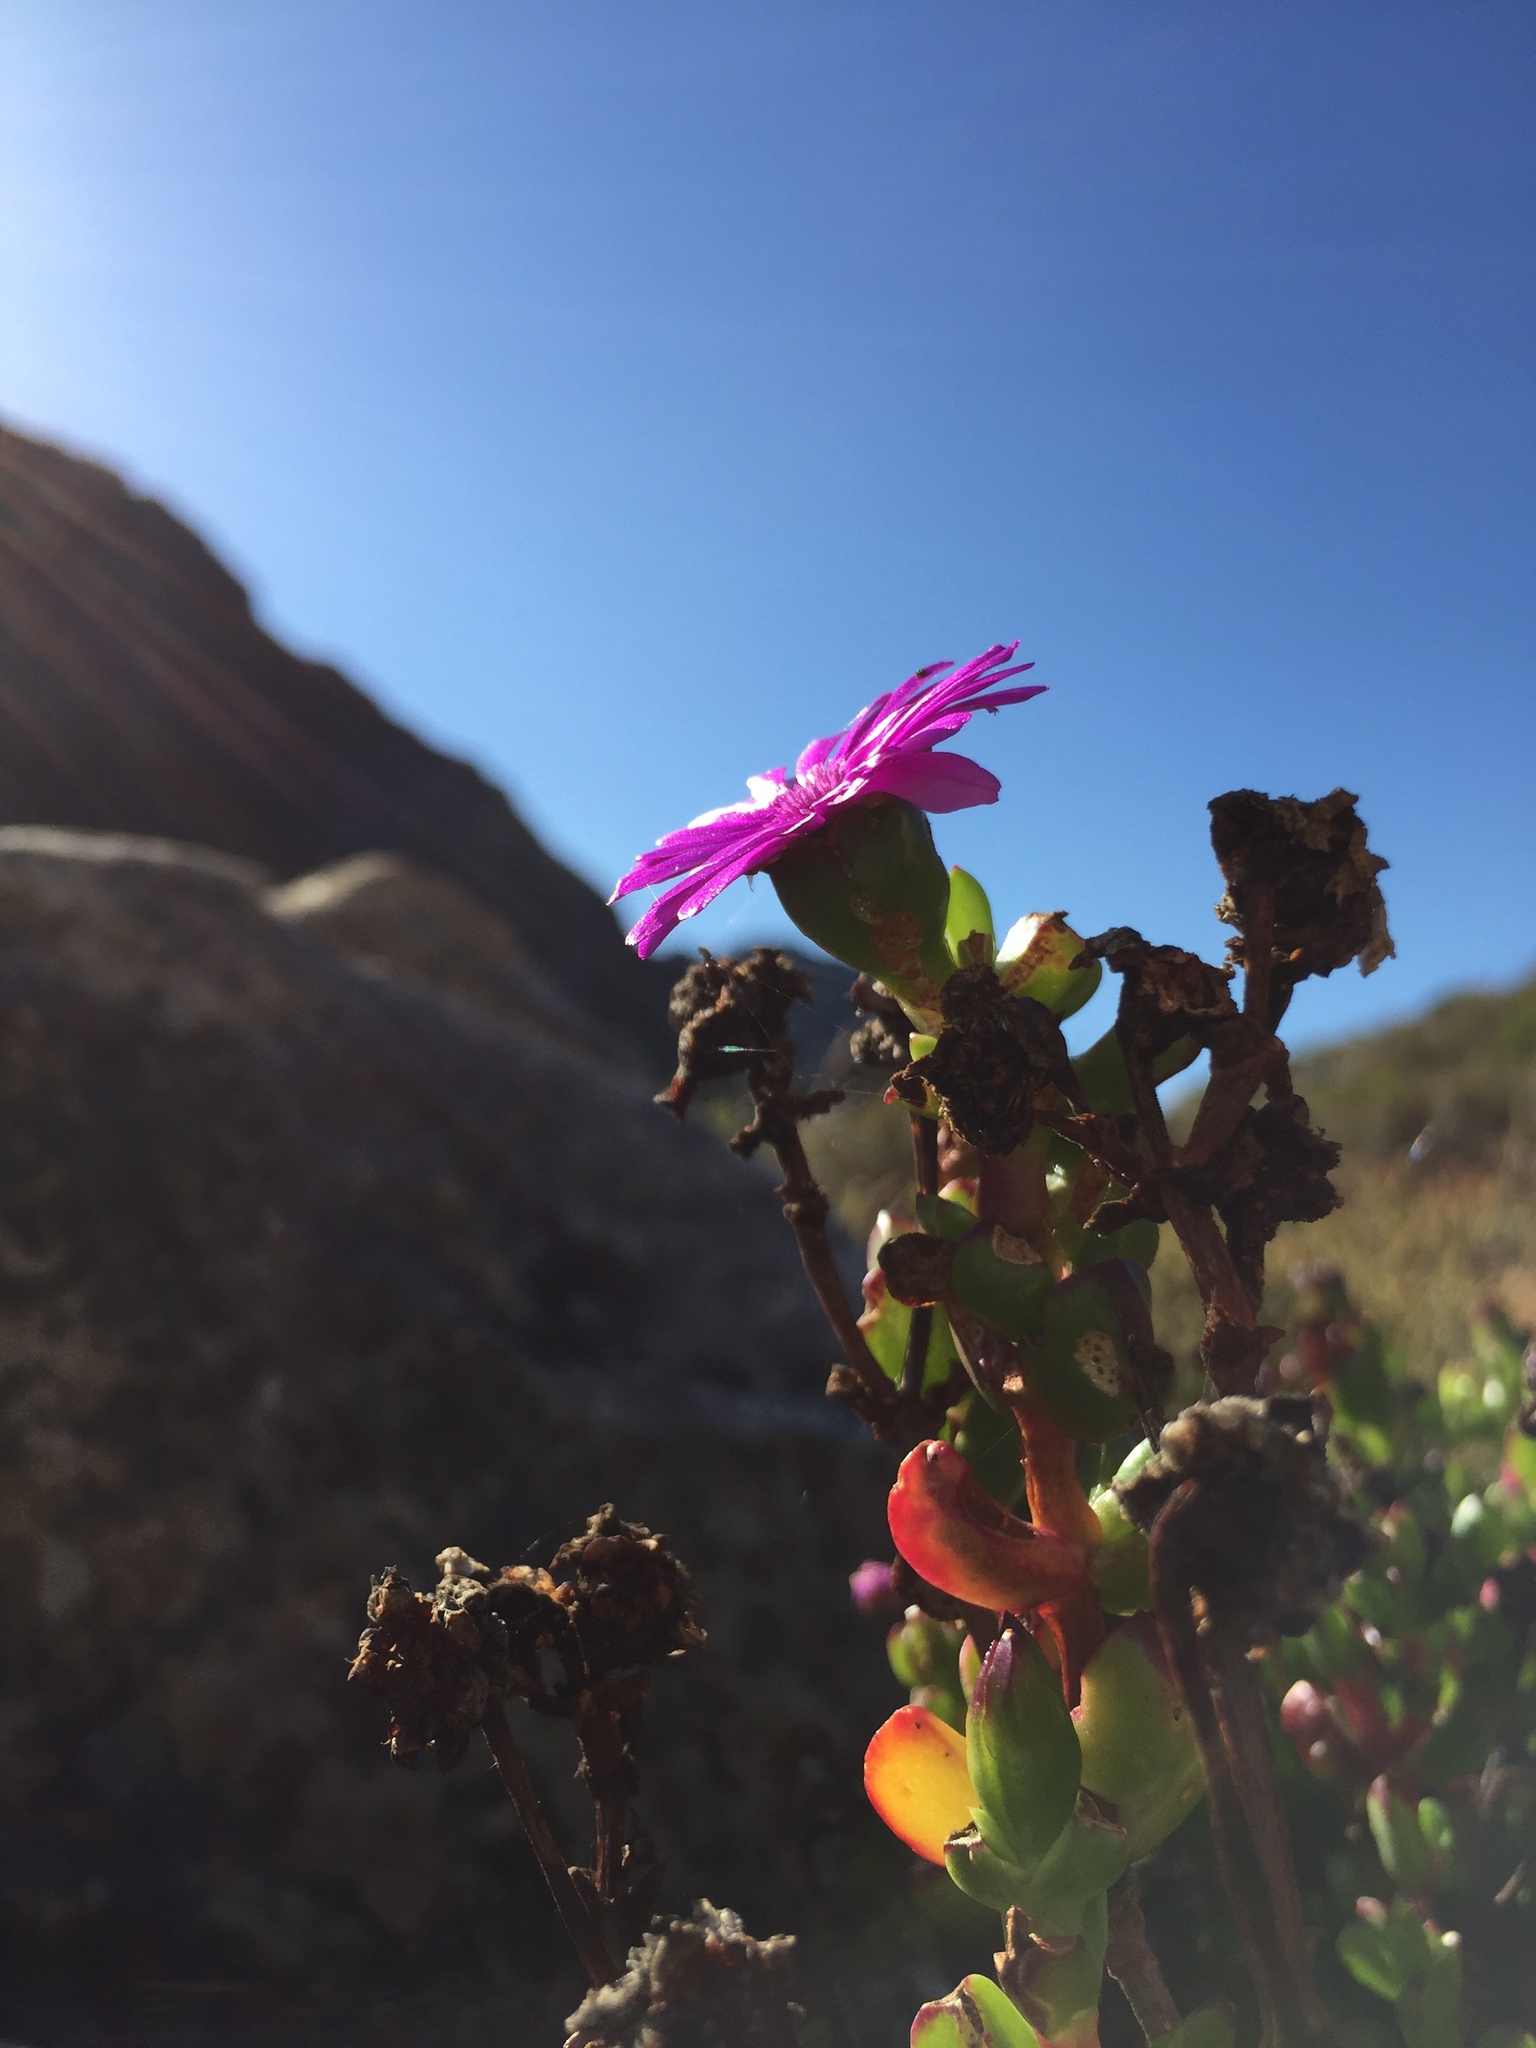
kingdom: Plantae
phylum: Tracheophyta
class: Magnoliopsida
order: Caryophyllales
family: Aizoaceae
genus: Erepsia
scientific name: Erepsia inclaudens
